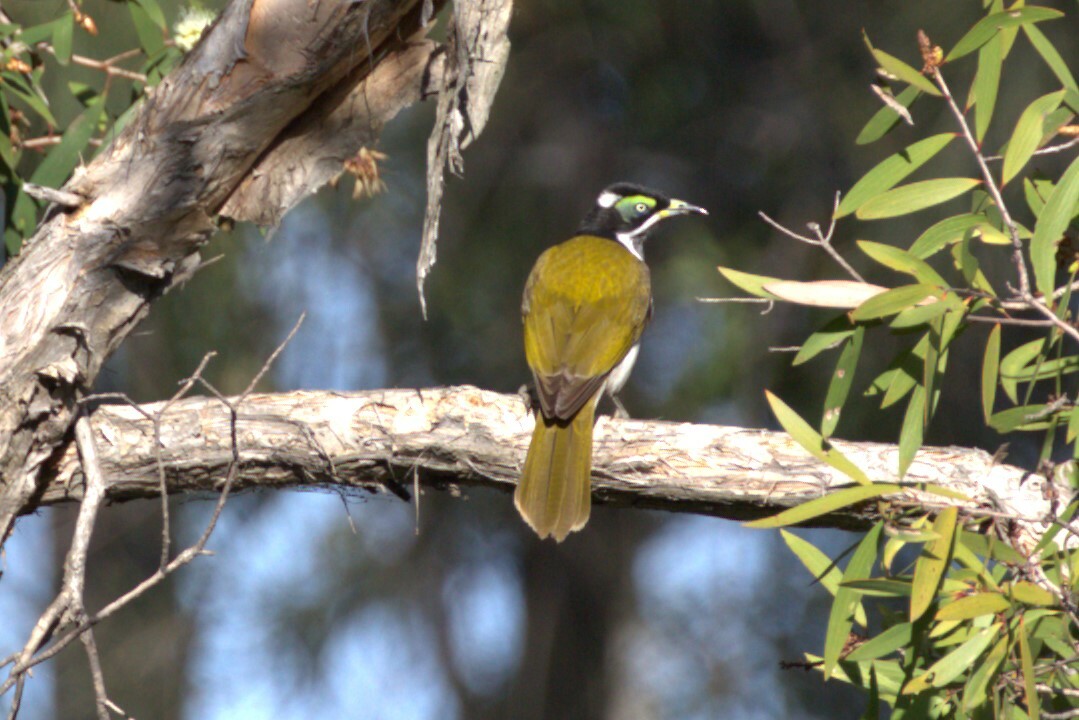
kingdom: Animalia
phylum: Chordata
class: Aves
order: Passeriformes
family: Meliphagidae
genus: Entomyzon
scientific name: Entomyzon cyanotis
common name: Blue-faced honeyeater
